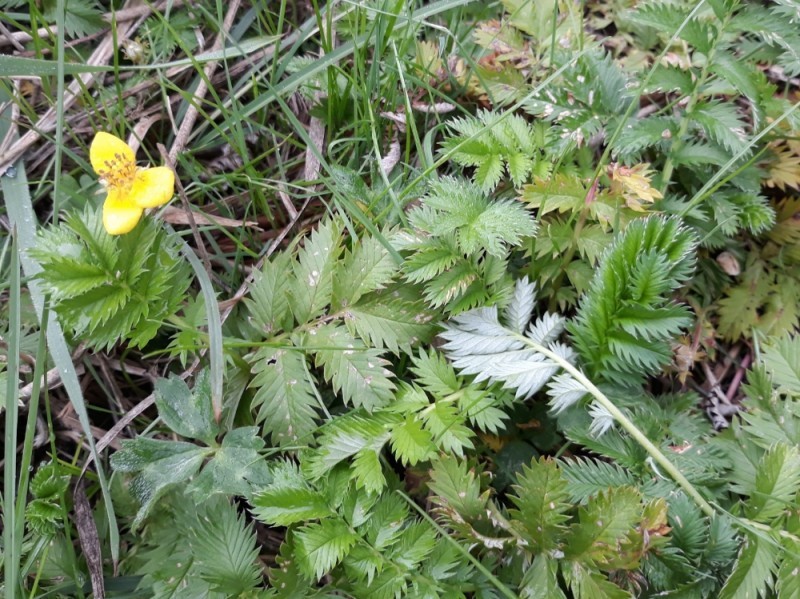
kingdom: Plantae
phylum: Tracheophyta
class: Magnoliopsida
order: Rosales
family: Rosaceae
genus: Argentina
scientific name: Argentina anserina
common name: Common silverweed
